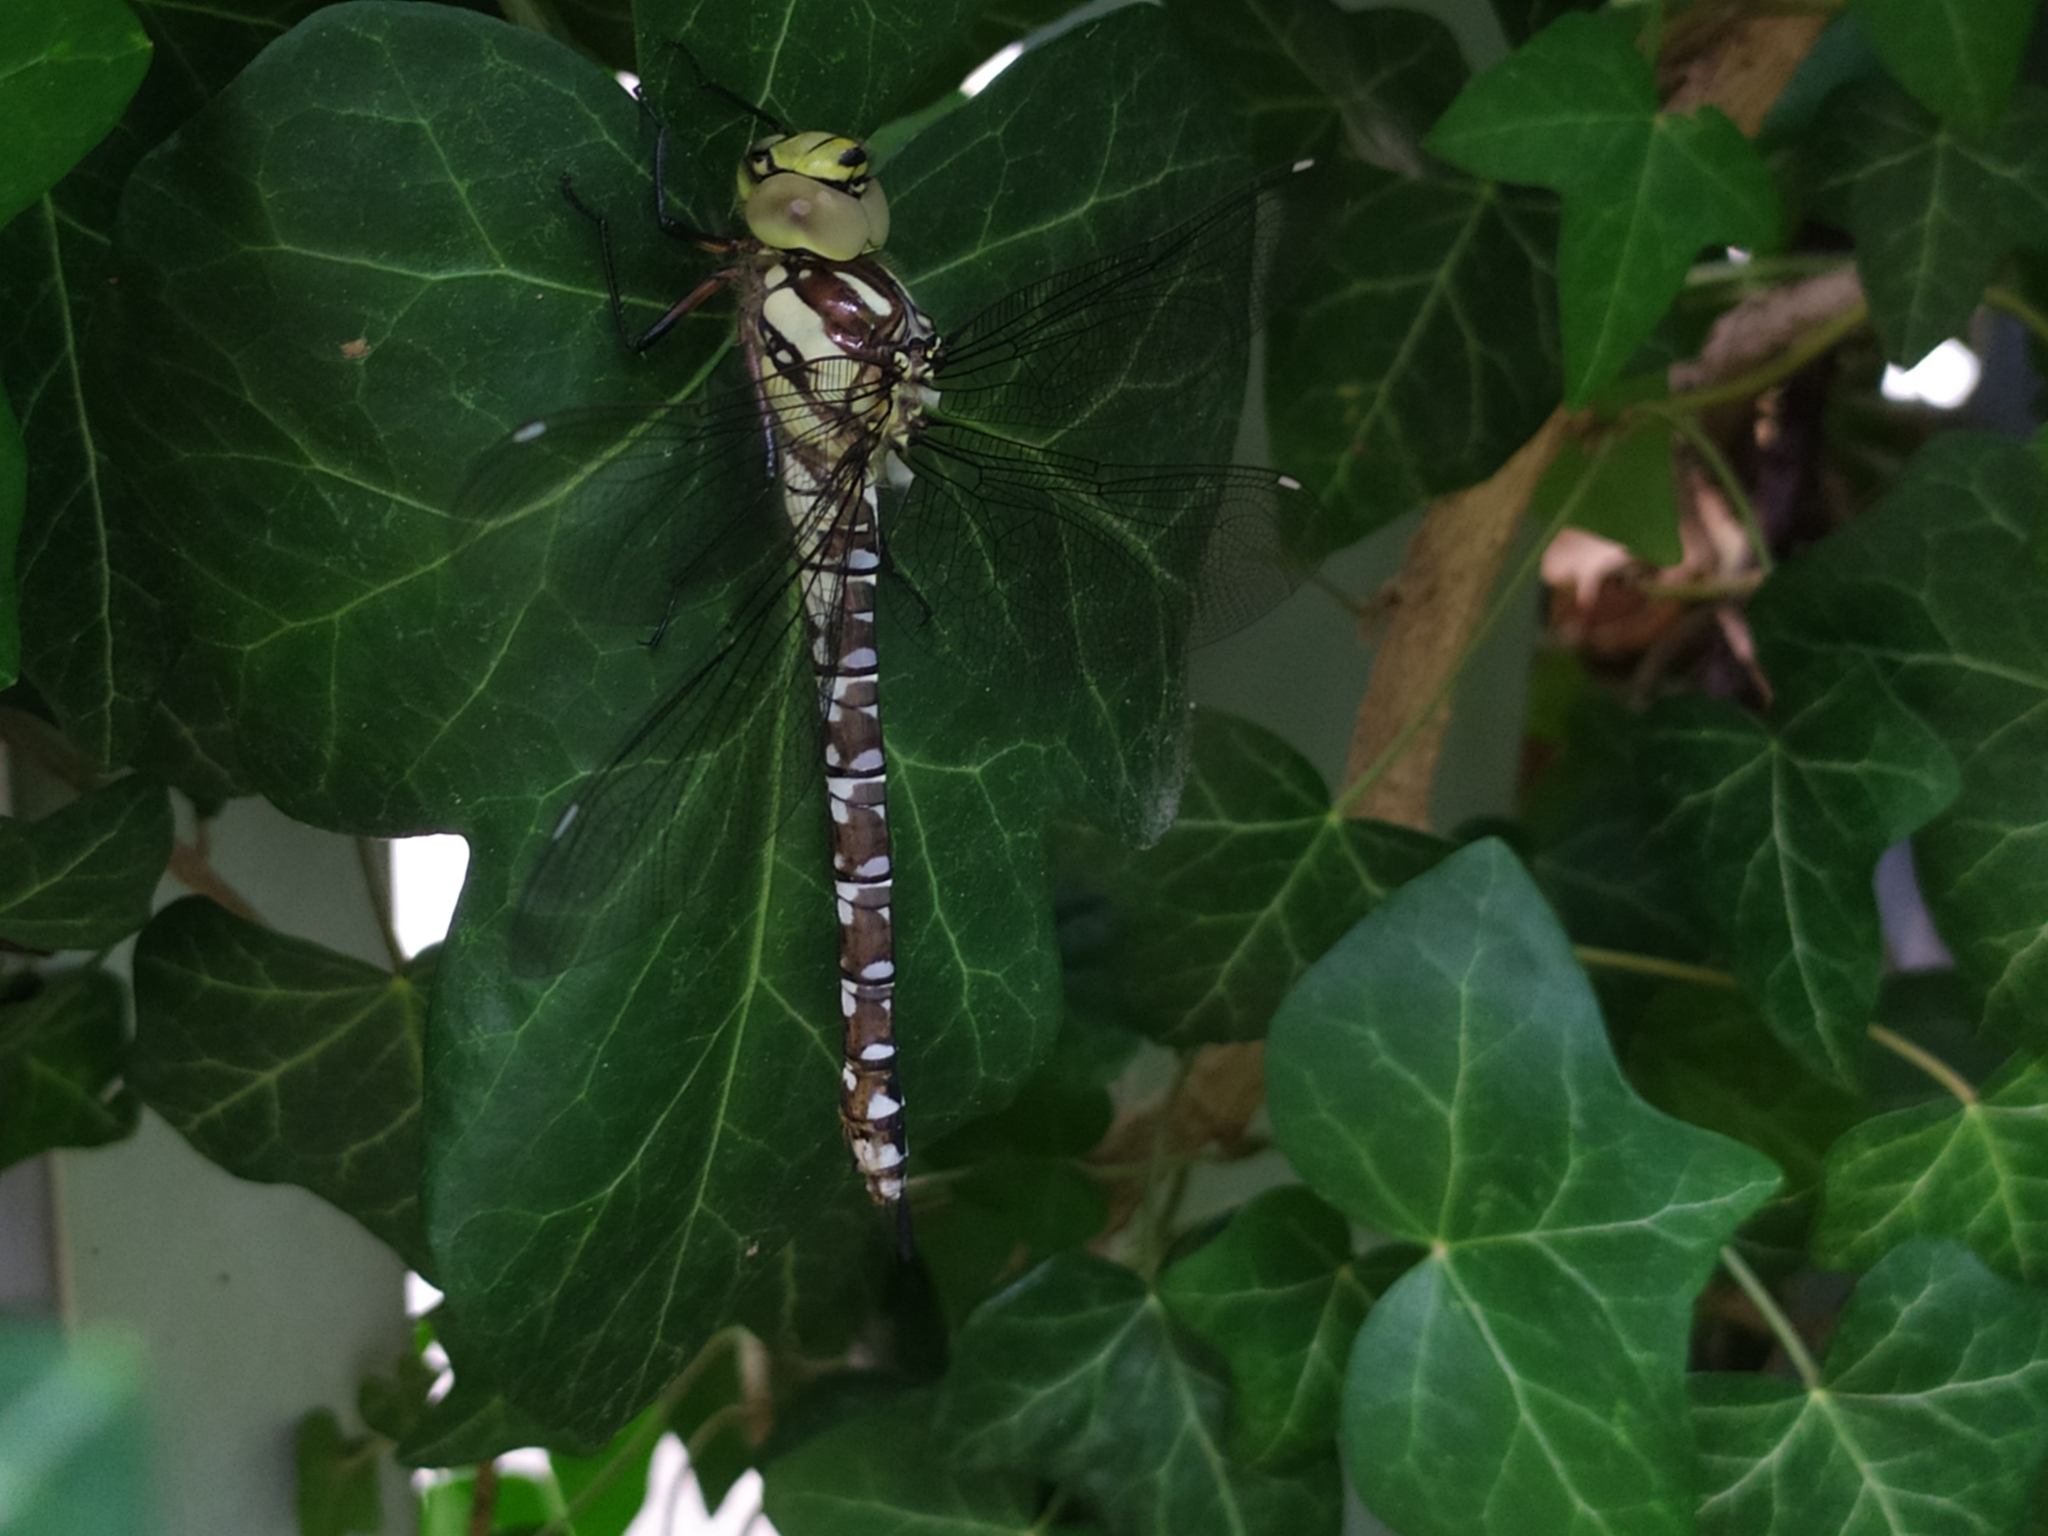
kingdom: Animalia
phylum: Arthropoda
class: Insecta
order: Odonata
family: Aeshnidae
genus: Aeshna
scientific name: Aeshna cyanea
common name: Southern hawker
